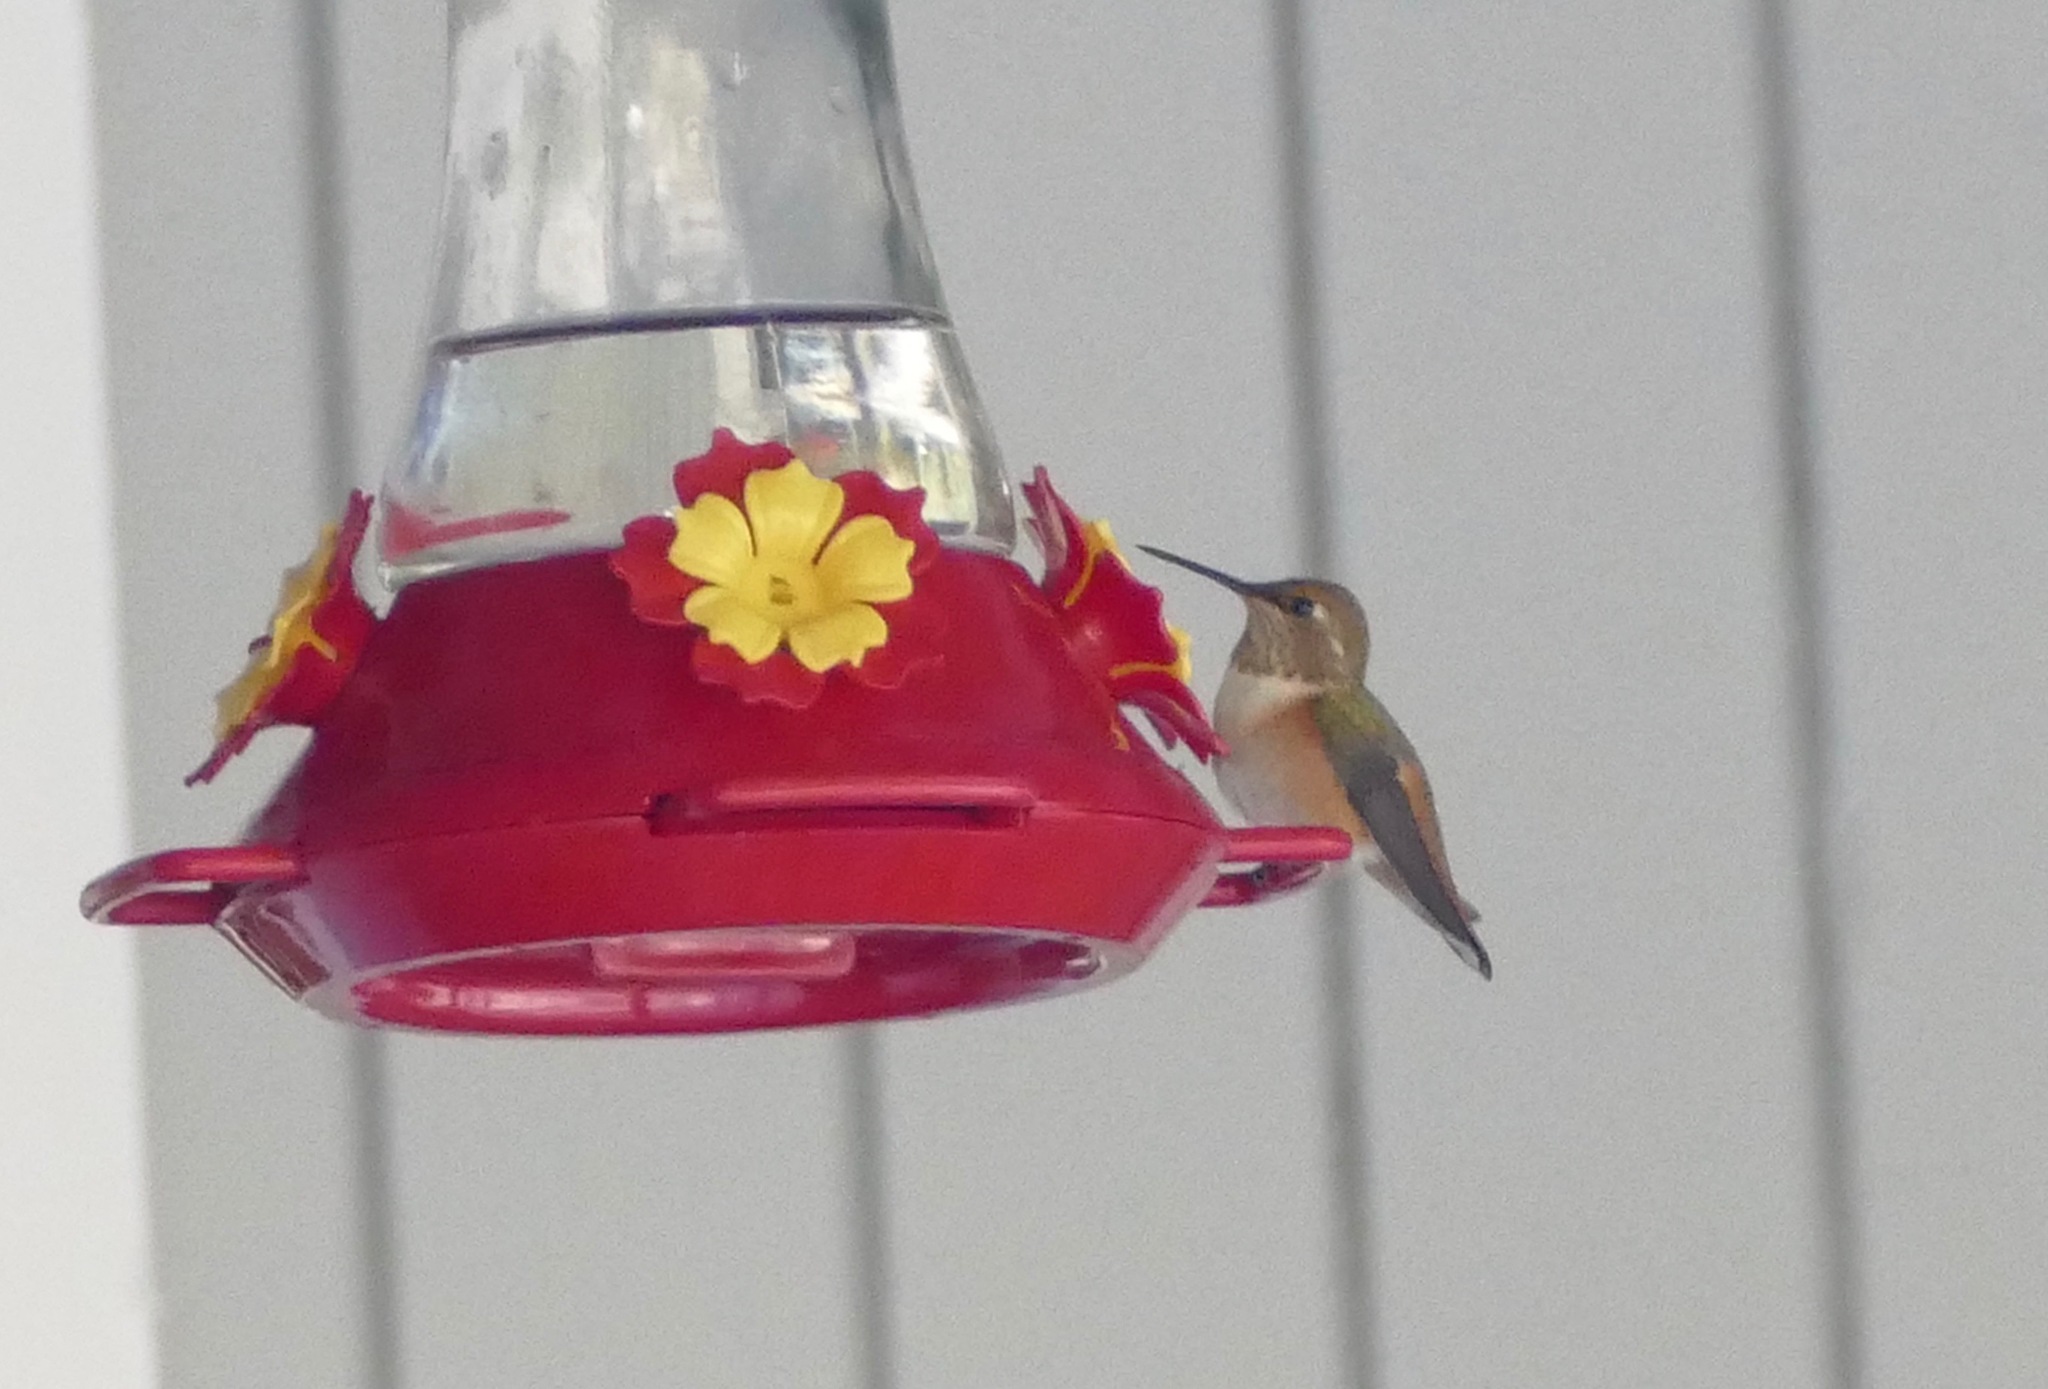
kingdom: Animalia
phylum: Chordata
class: Aves
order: Apodiformes
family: Trochilidae
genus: Selasphorus
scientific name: Selasphorus rufus
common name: Rufous hummingbird
